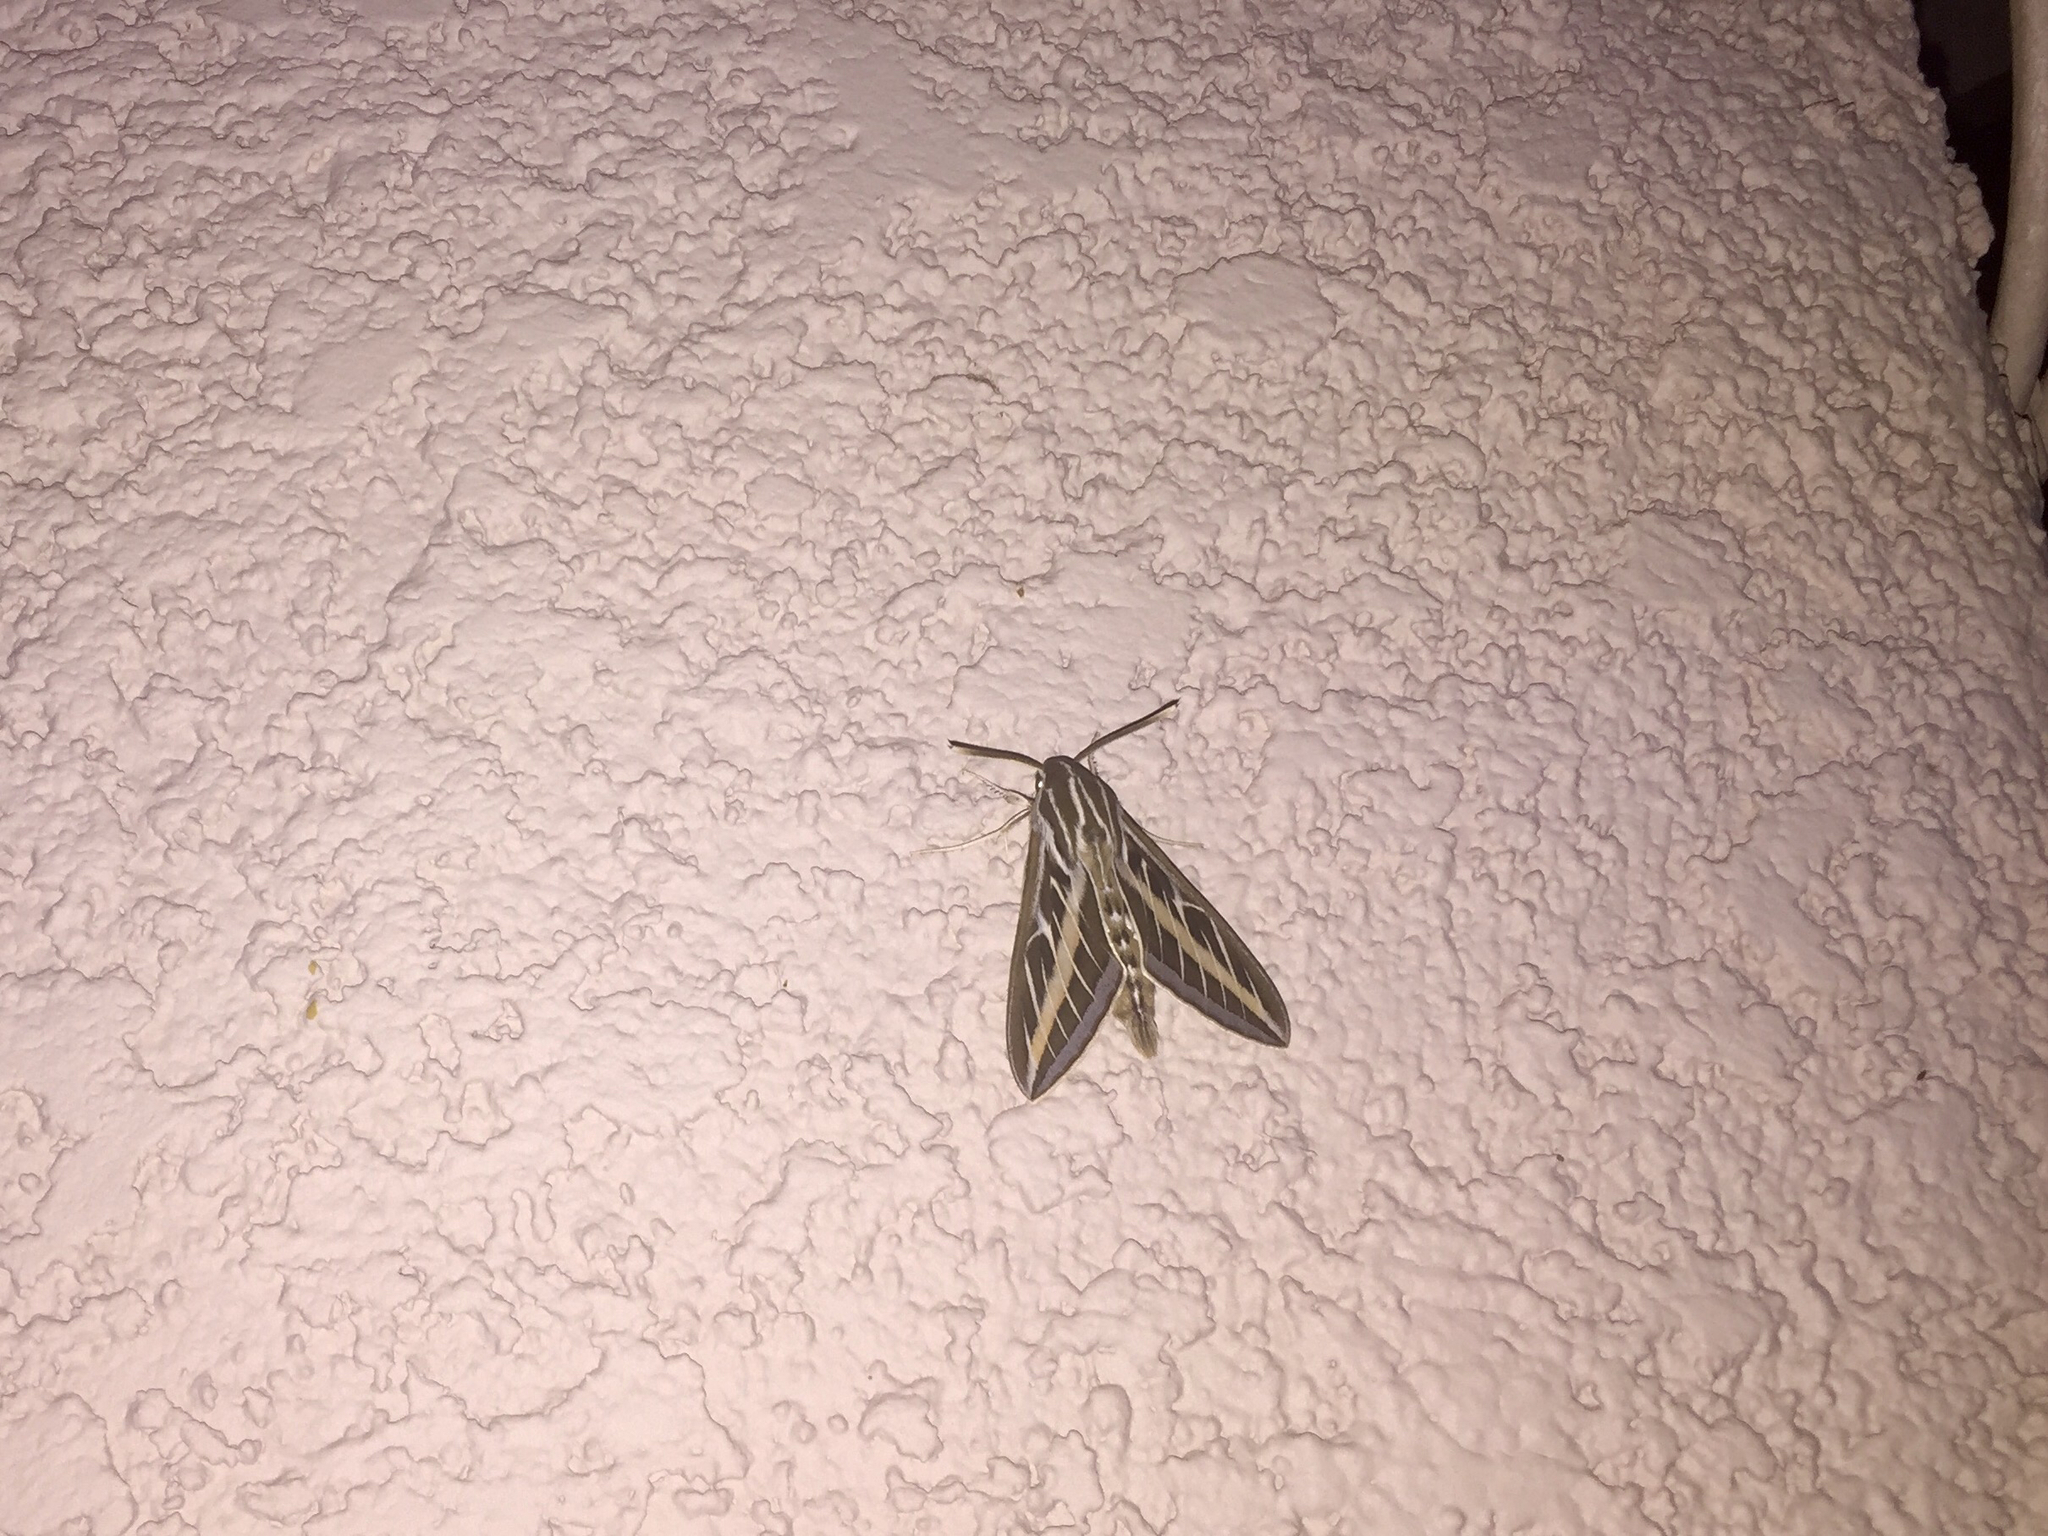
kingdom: Animalia
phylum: Arthropoda
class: Insecta
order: Lepidoptera
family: Sphingidae
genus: Hyles
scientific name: Hyles lineata
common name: White-lined sphinx
